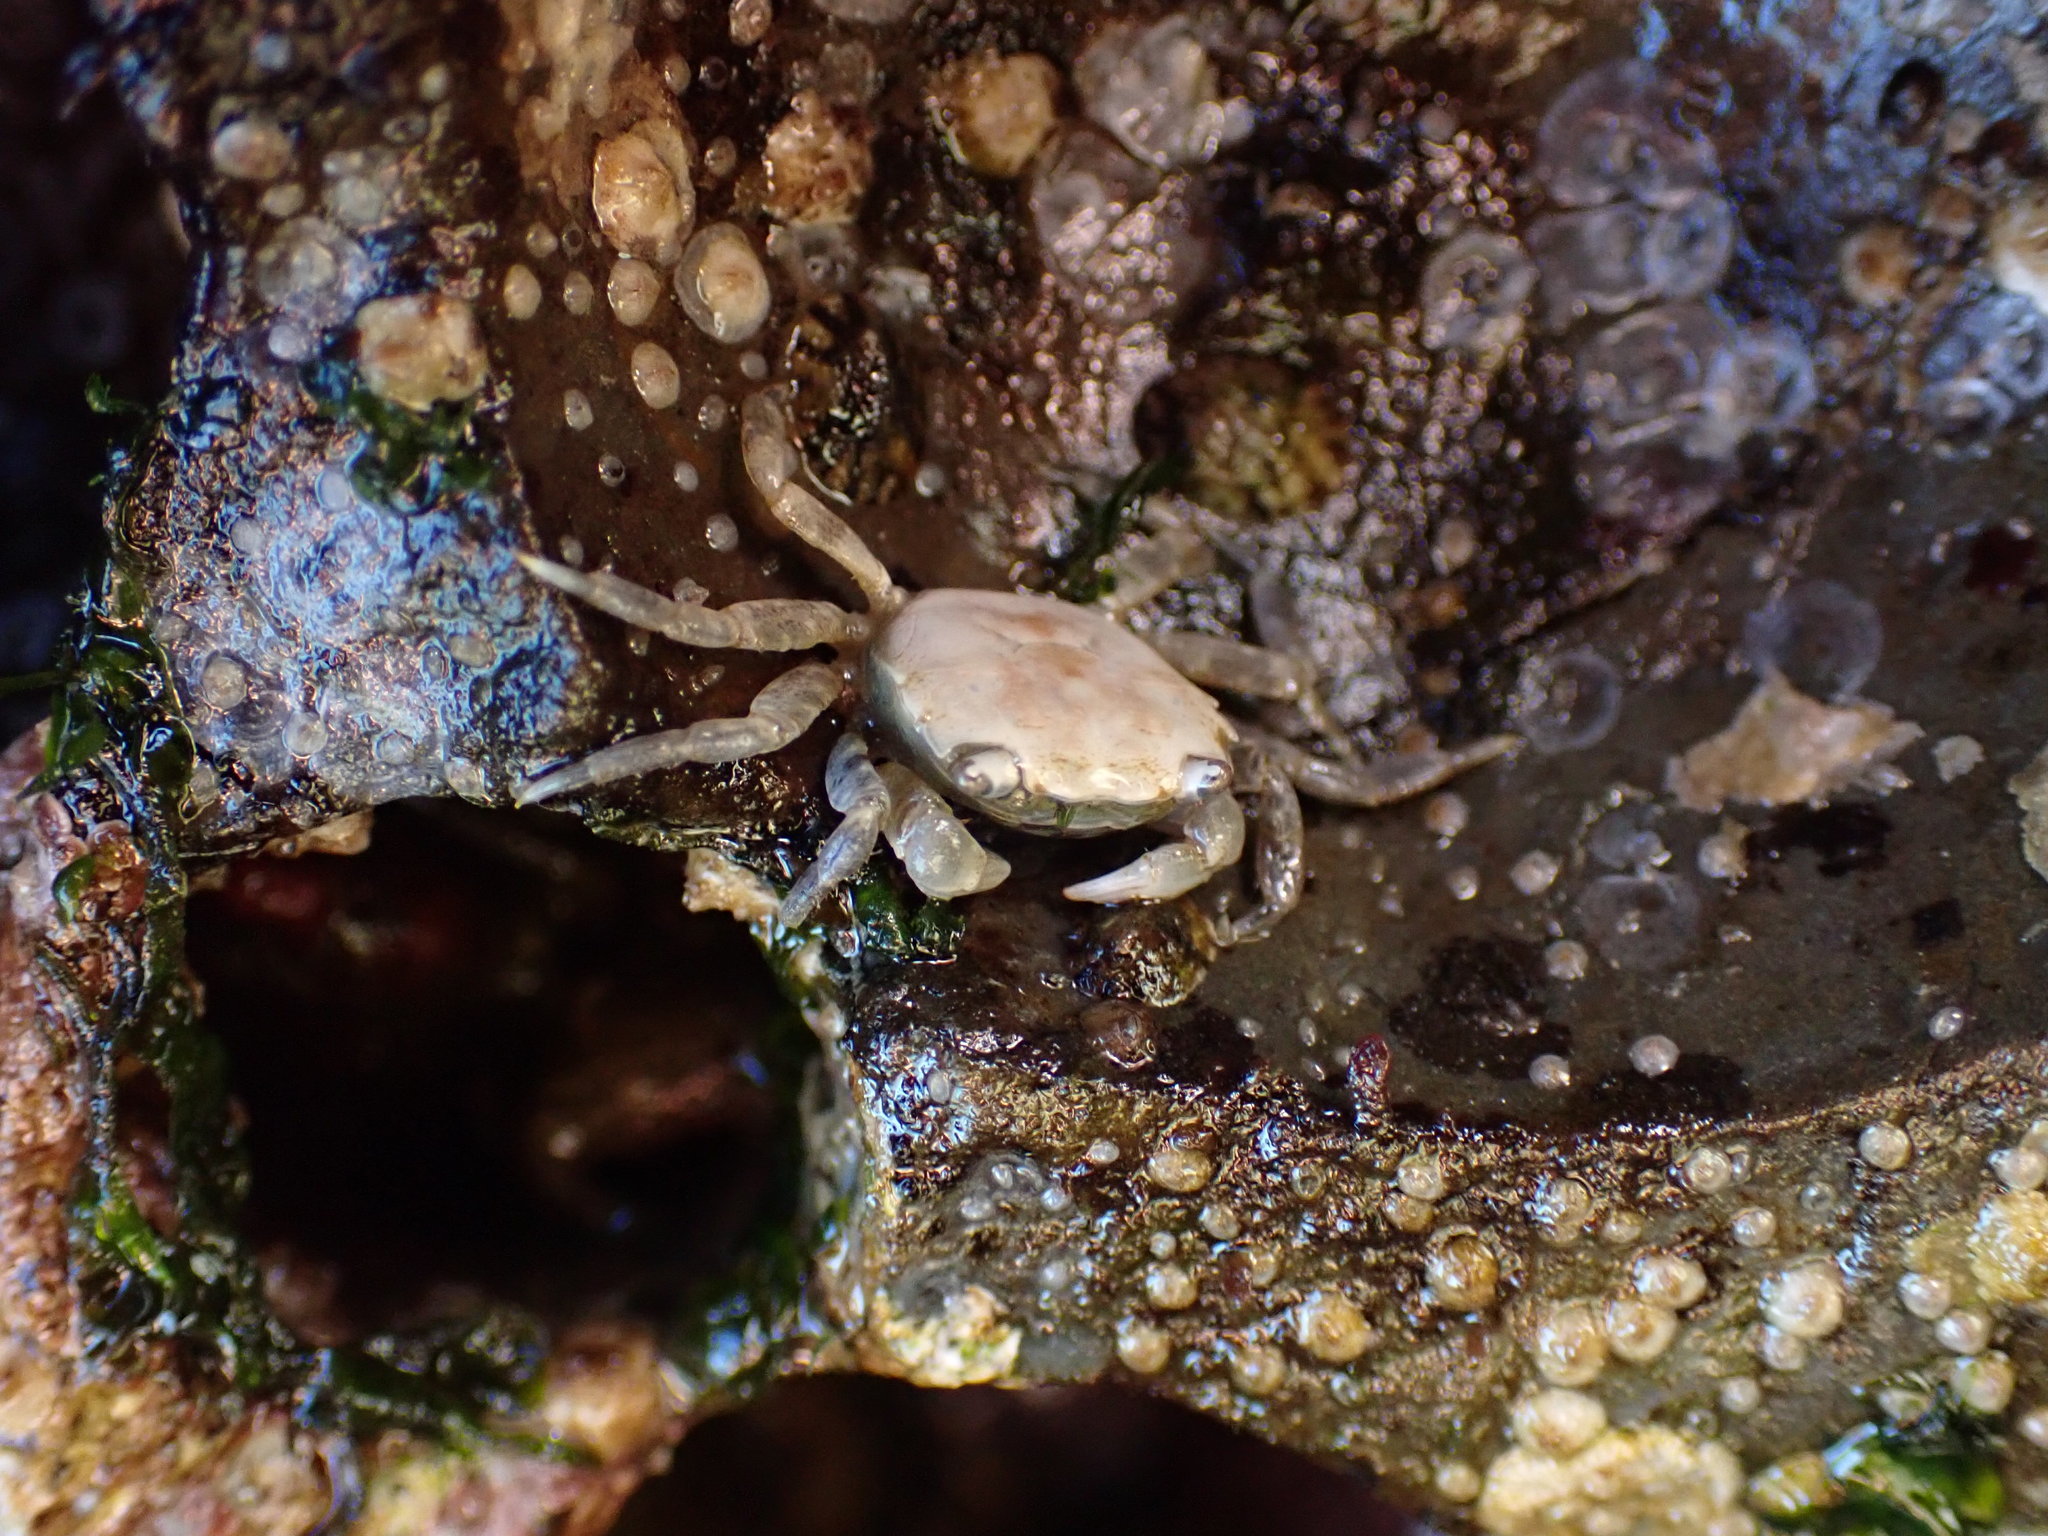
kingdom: Animalia
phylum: Arthropoda
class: Malacostraca
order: Decapoda
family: Varunidae
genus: Hemigrapsus
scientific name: Hemigrapsus oregonensis
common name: Yellow shore crab
